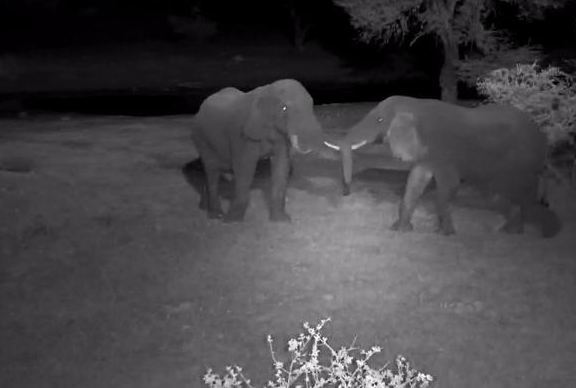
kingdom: Animalia
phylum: Chordata
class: Mammalia
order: Proboscidea
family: Elephantidae
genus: Loxodonta
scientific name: Loxodonta africana
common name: African elephant
